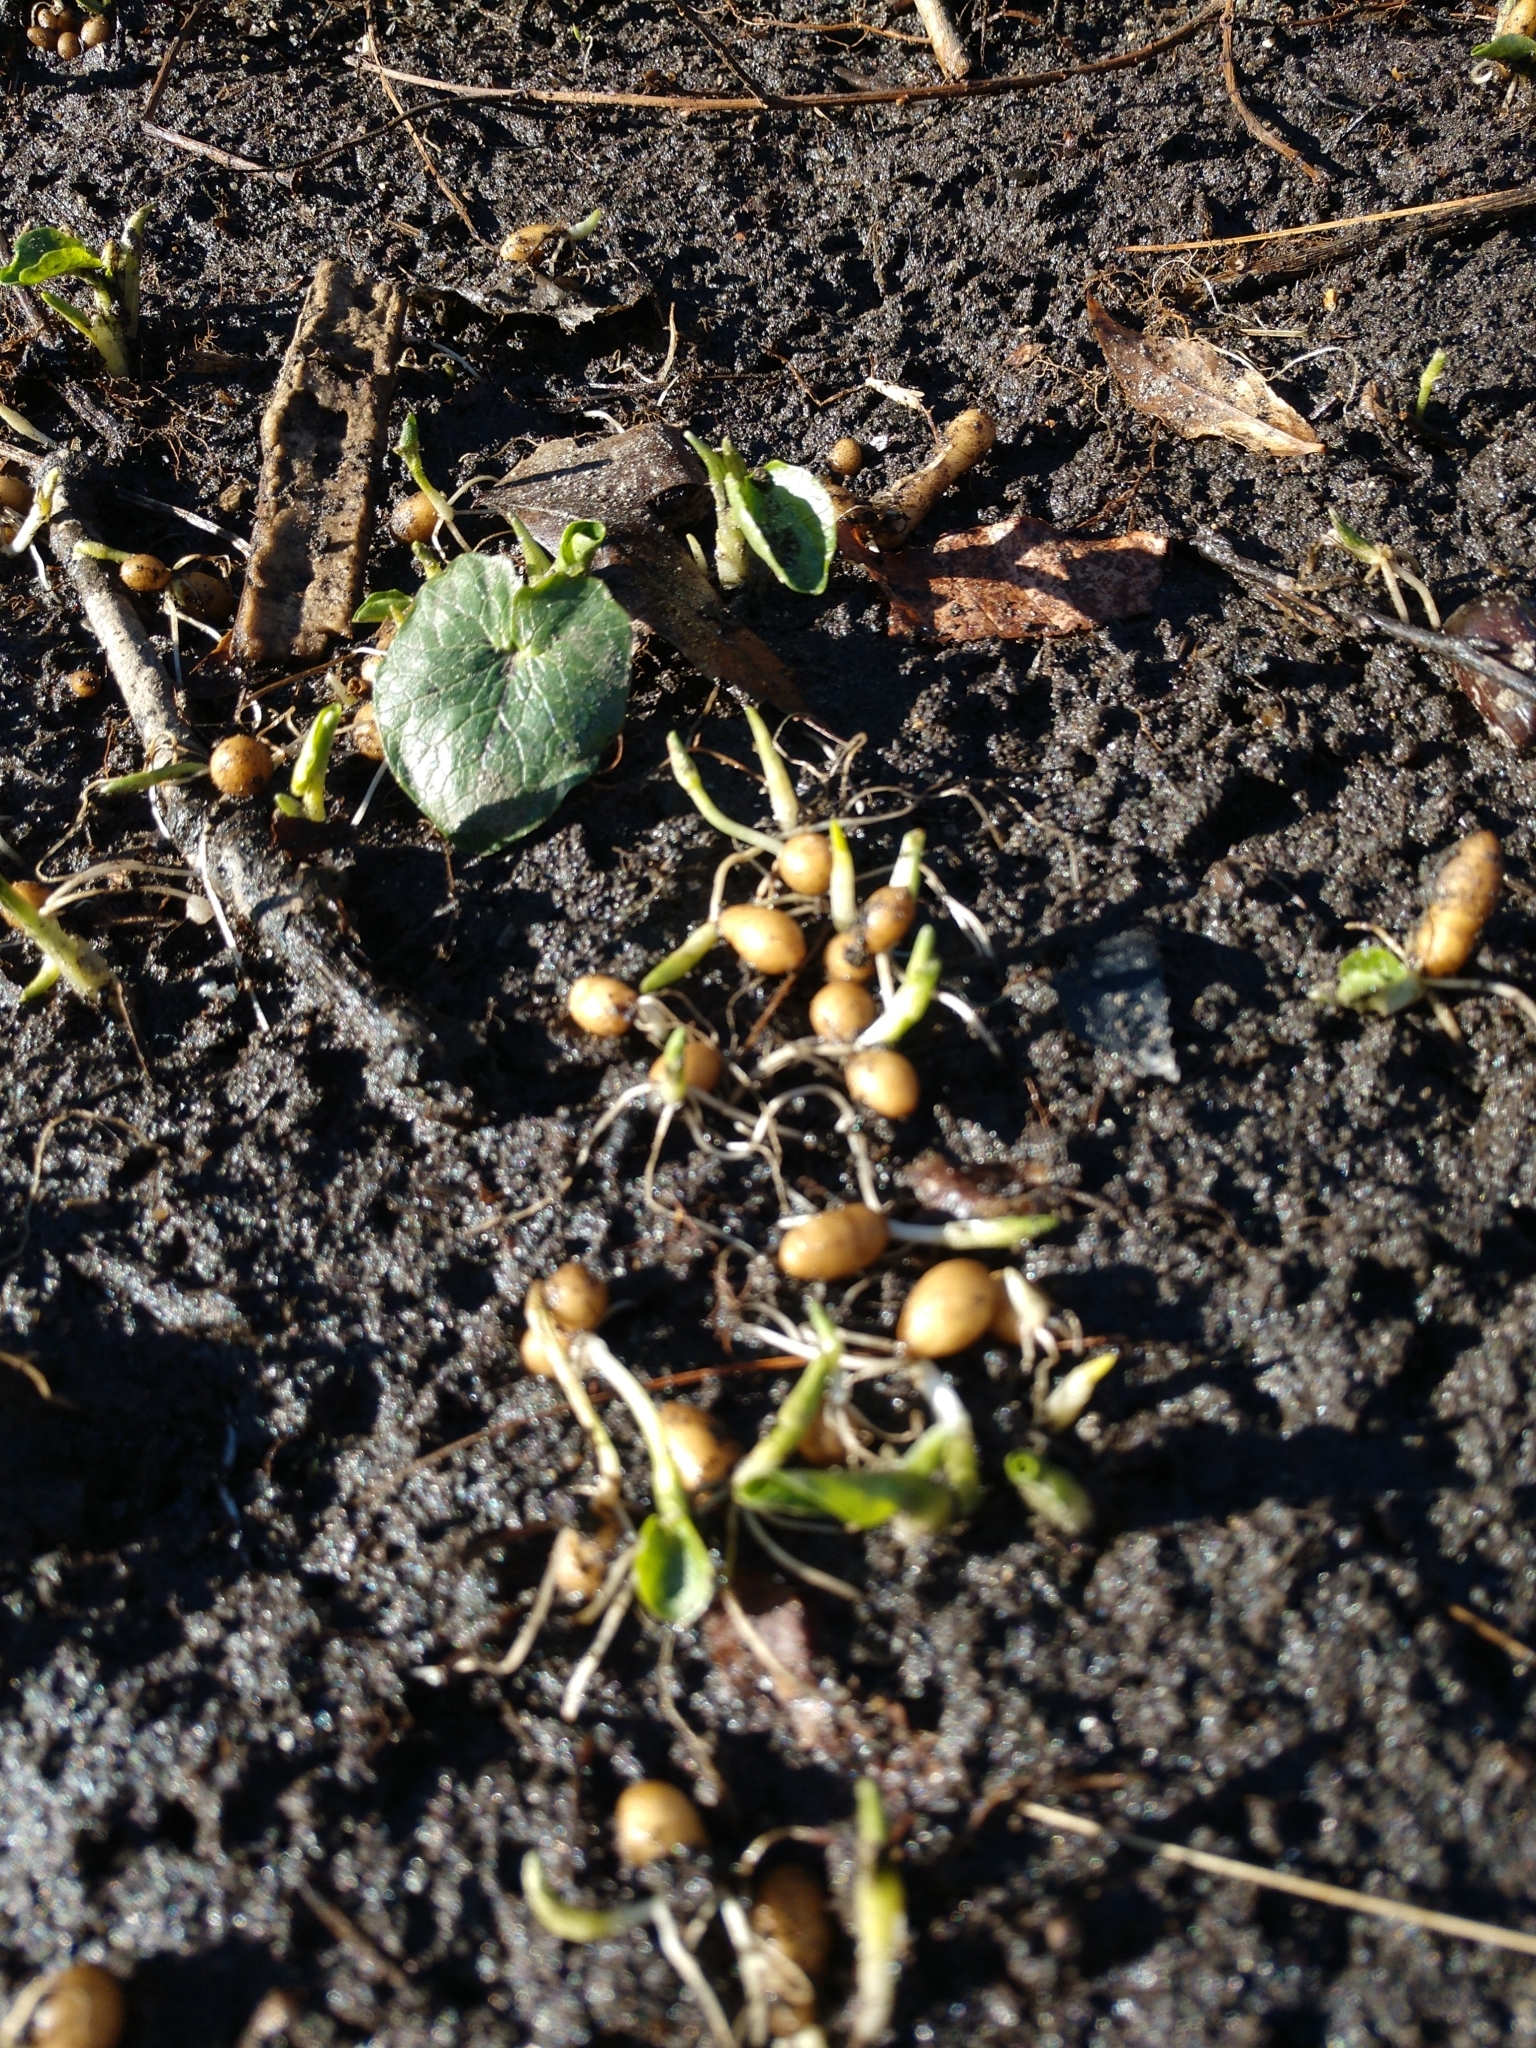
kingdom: Plantae
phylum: Tracheophyta
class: Magnoliopsida
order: Ranunculales
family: Ranunculaceae
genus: Ficaria
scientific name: Ficaria verna
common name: Lesser celandine
